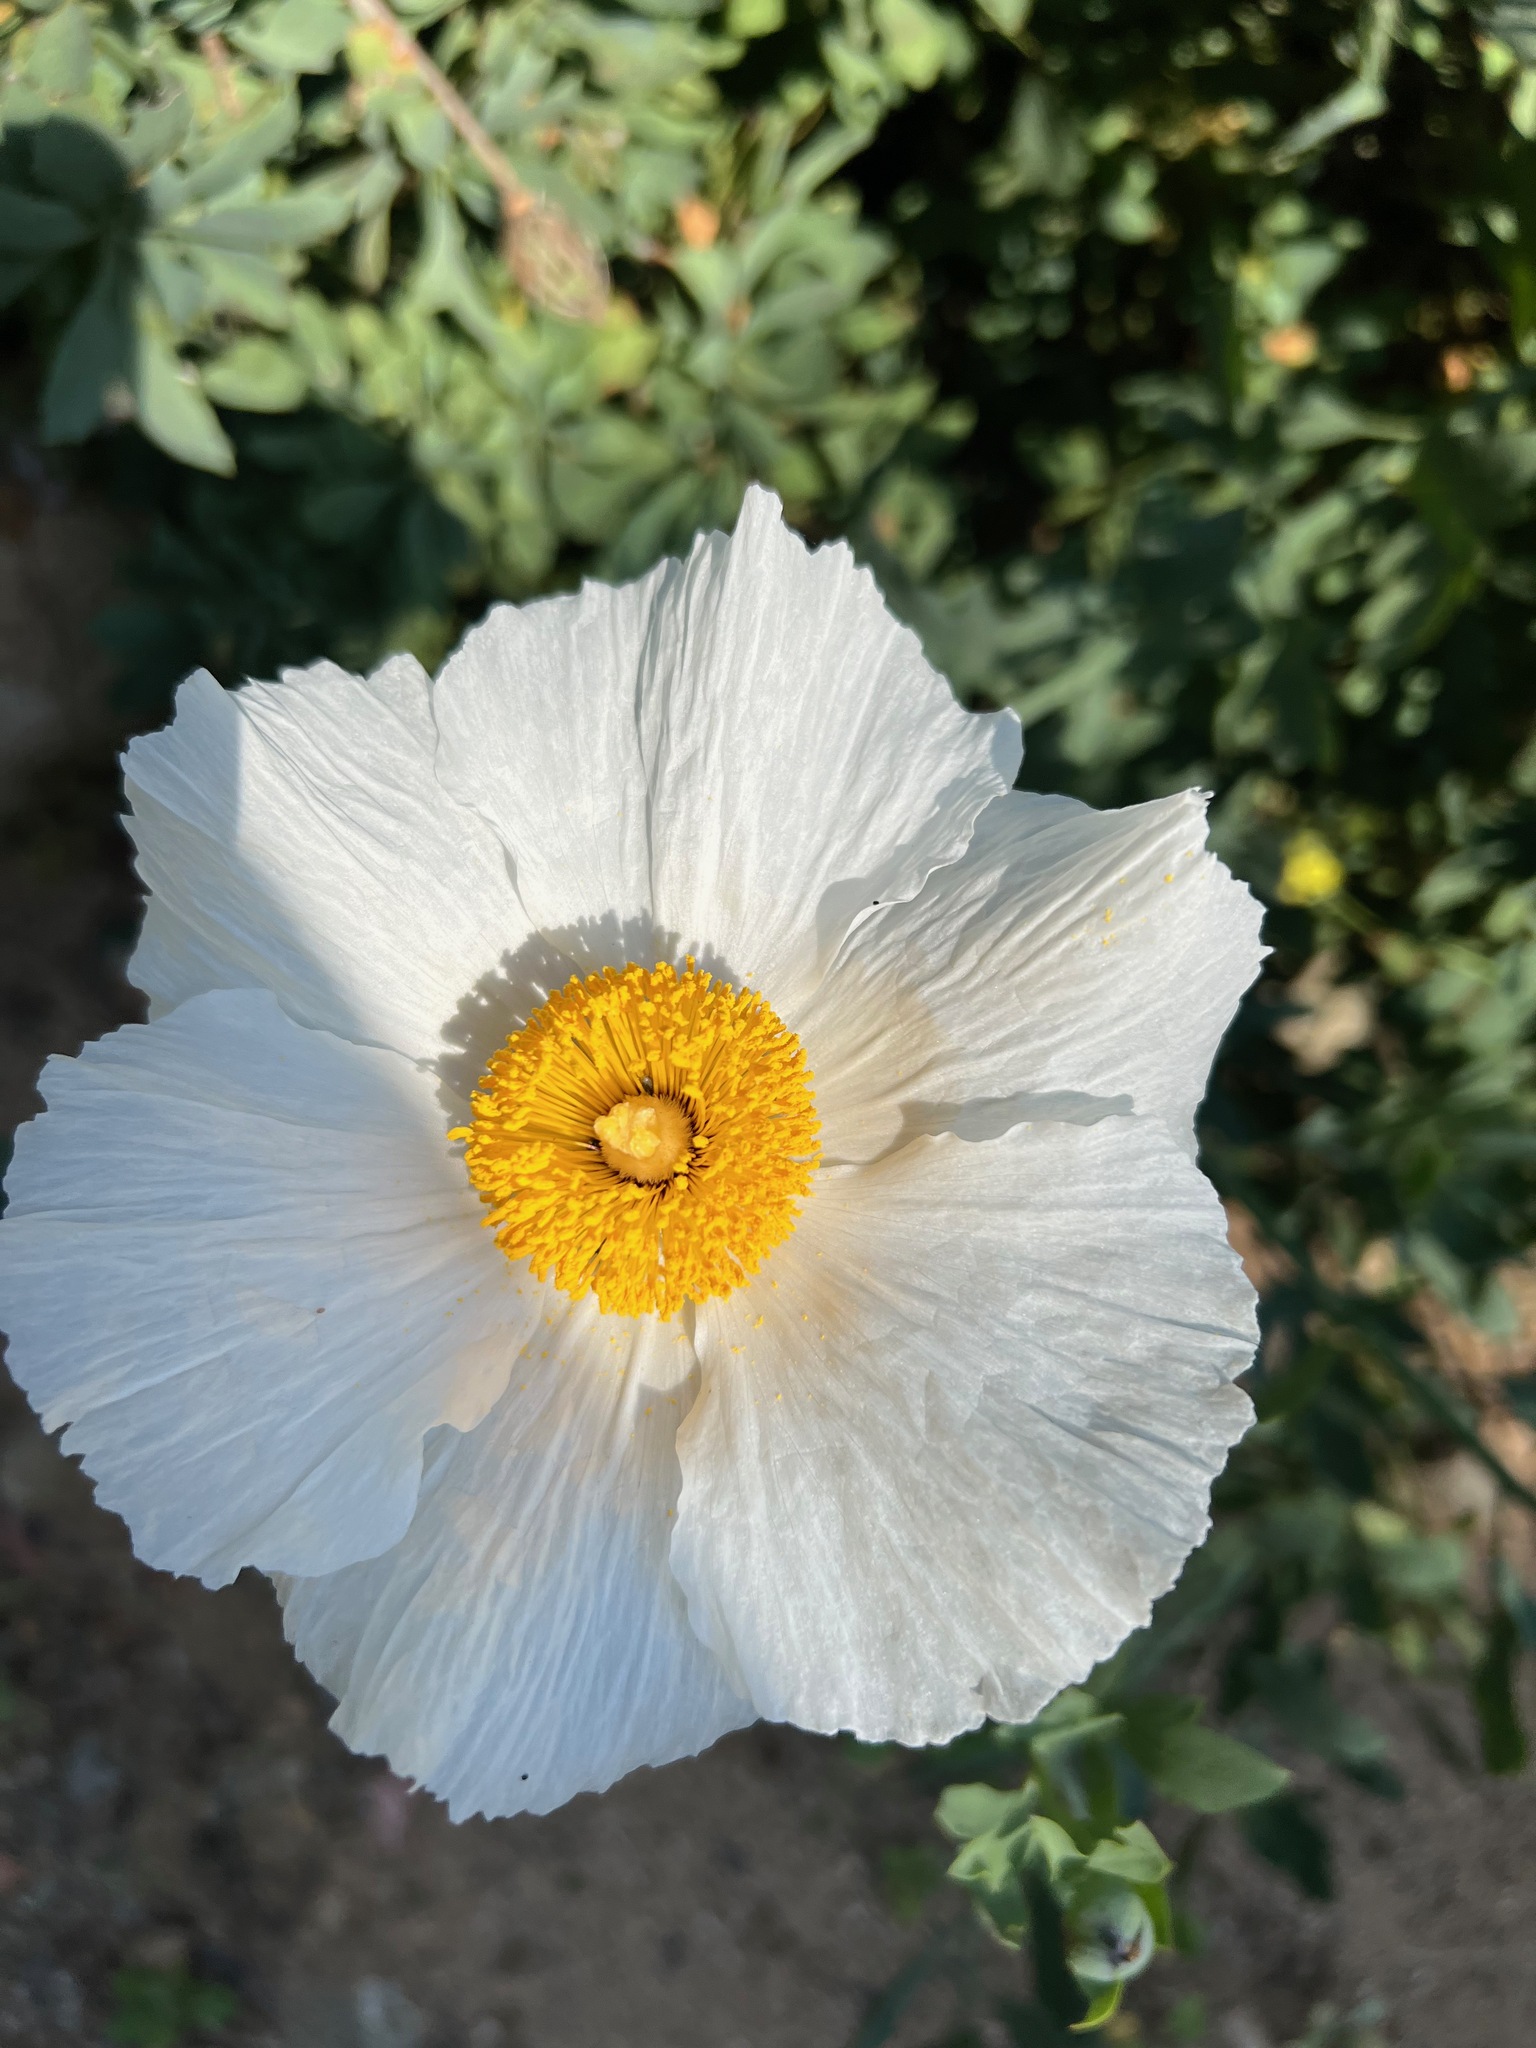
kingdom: Plantae
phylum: Tracheophyta
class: Magnoliopsida
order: Ranunculales
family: Papaveraceae
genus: Romneya
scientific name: Romneya coulteri
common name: California tree-poppy
